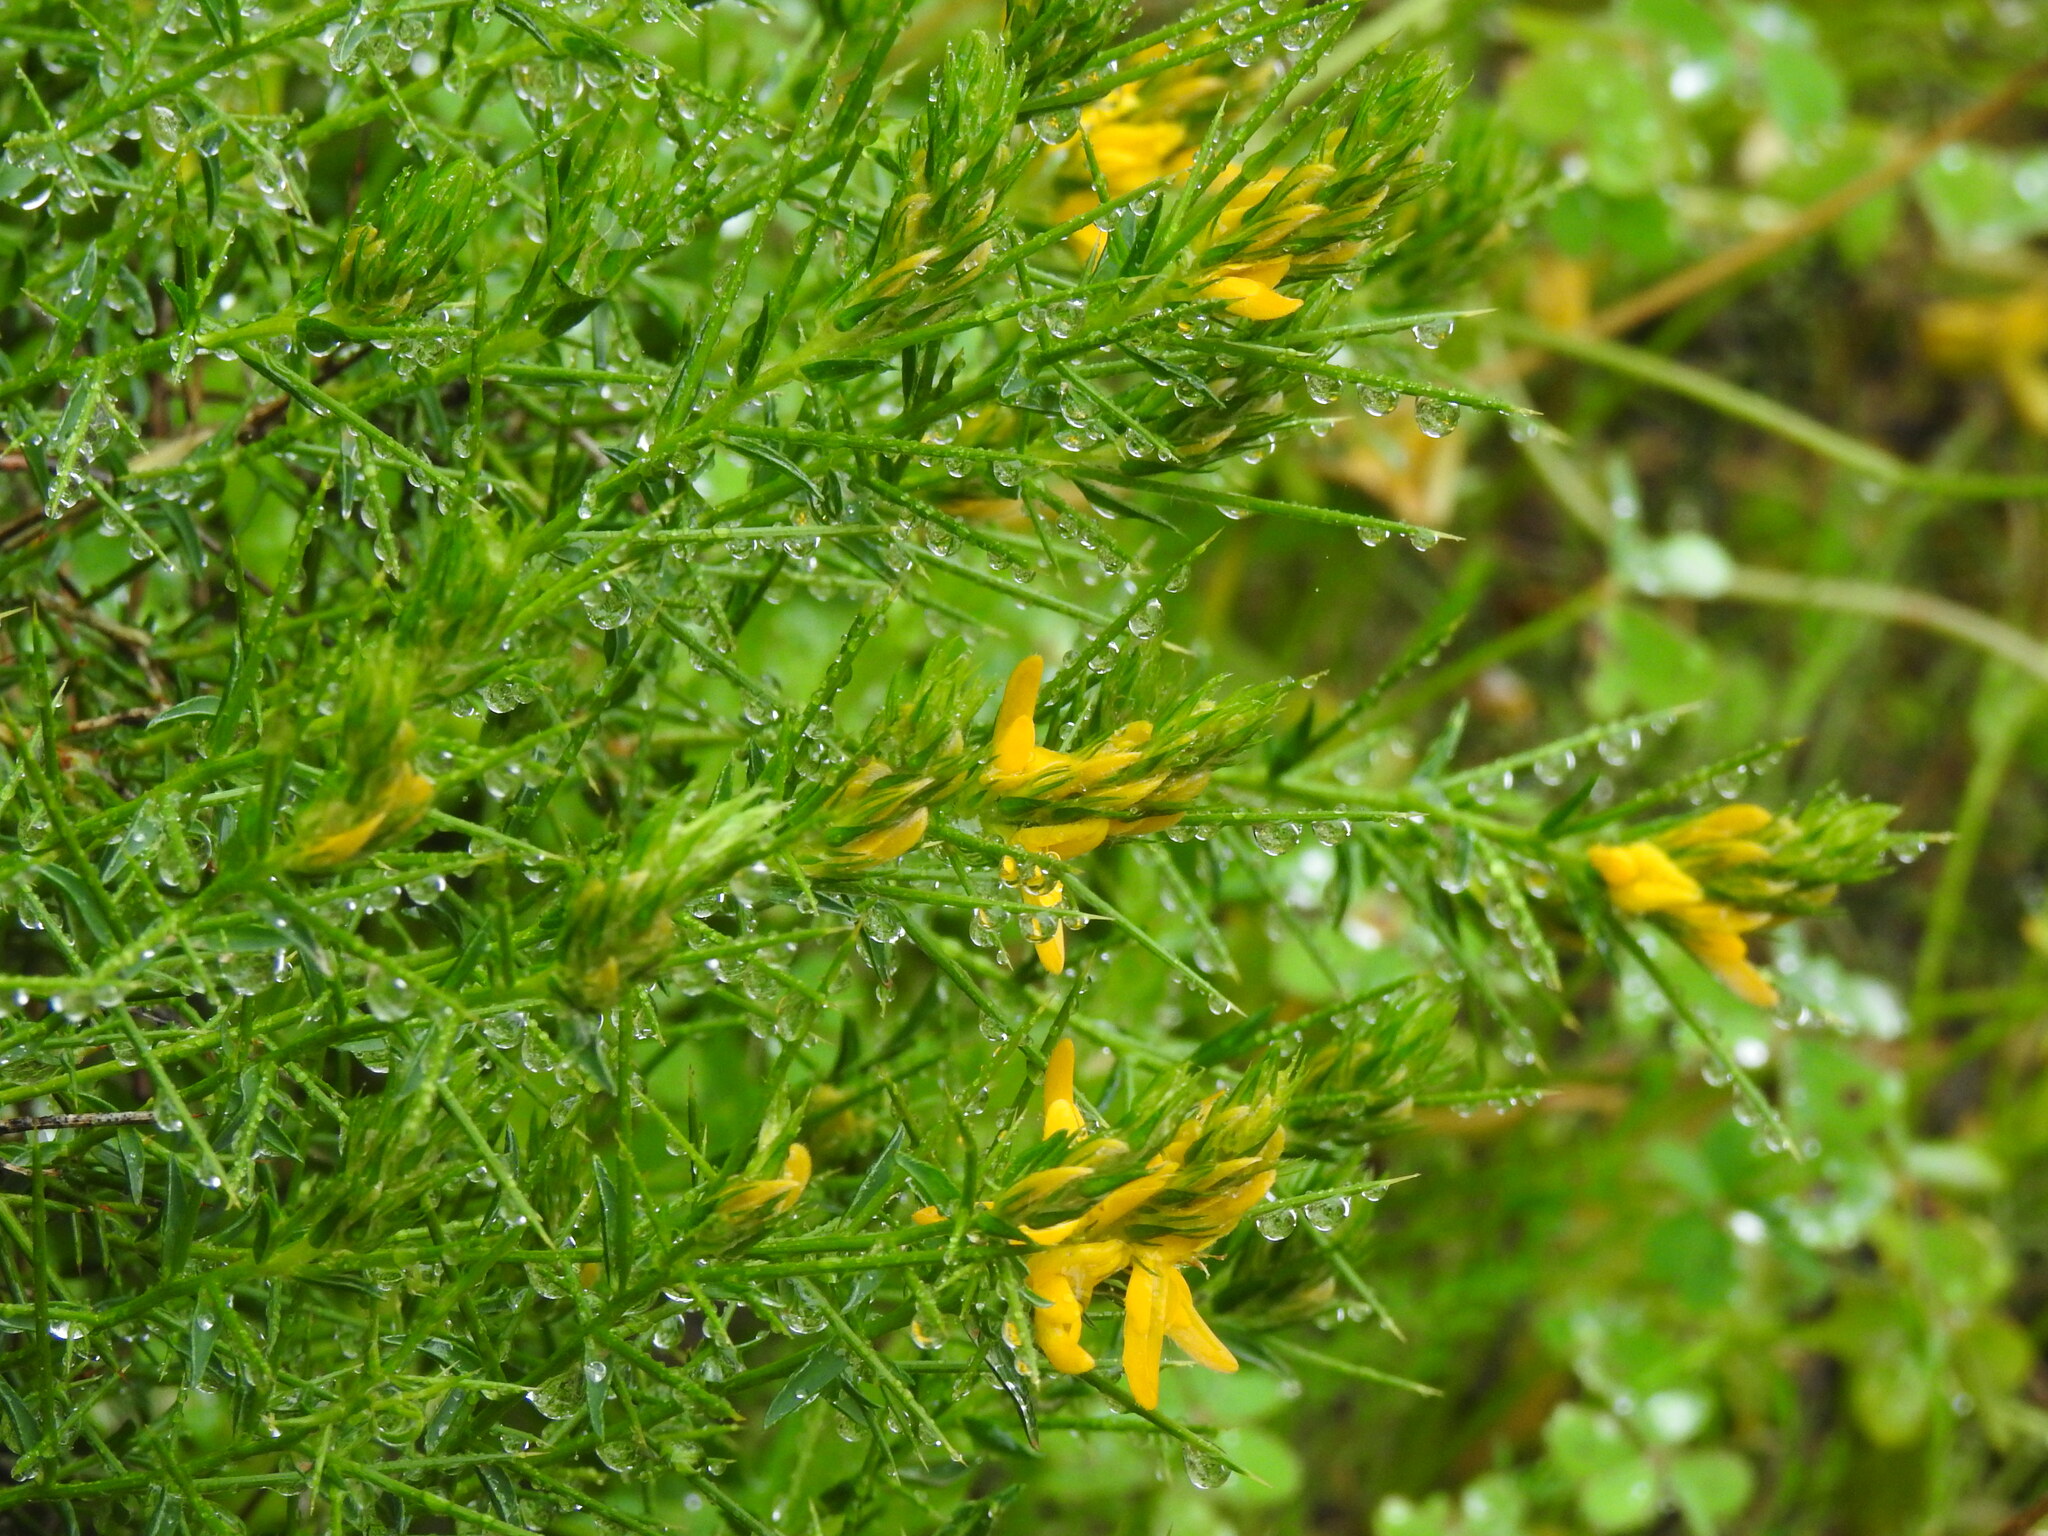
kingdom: Plantae
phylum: Tracheophyta
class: Magnoliopsida
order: Fabales
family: Fabaceae
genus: Genista
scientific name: Genista hirsuta
